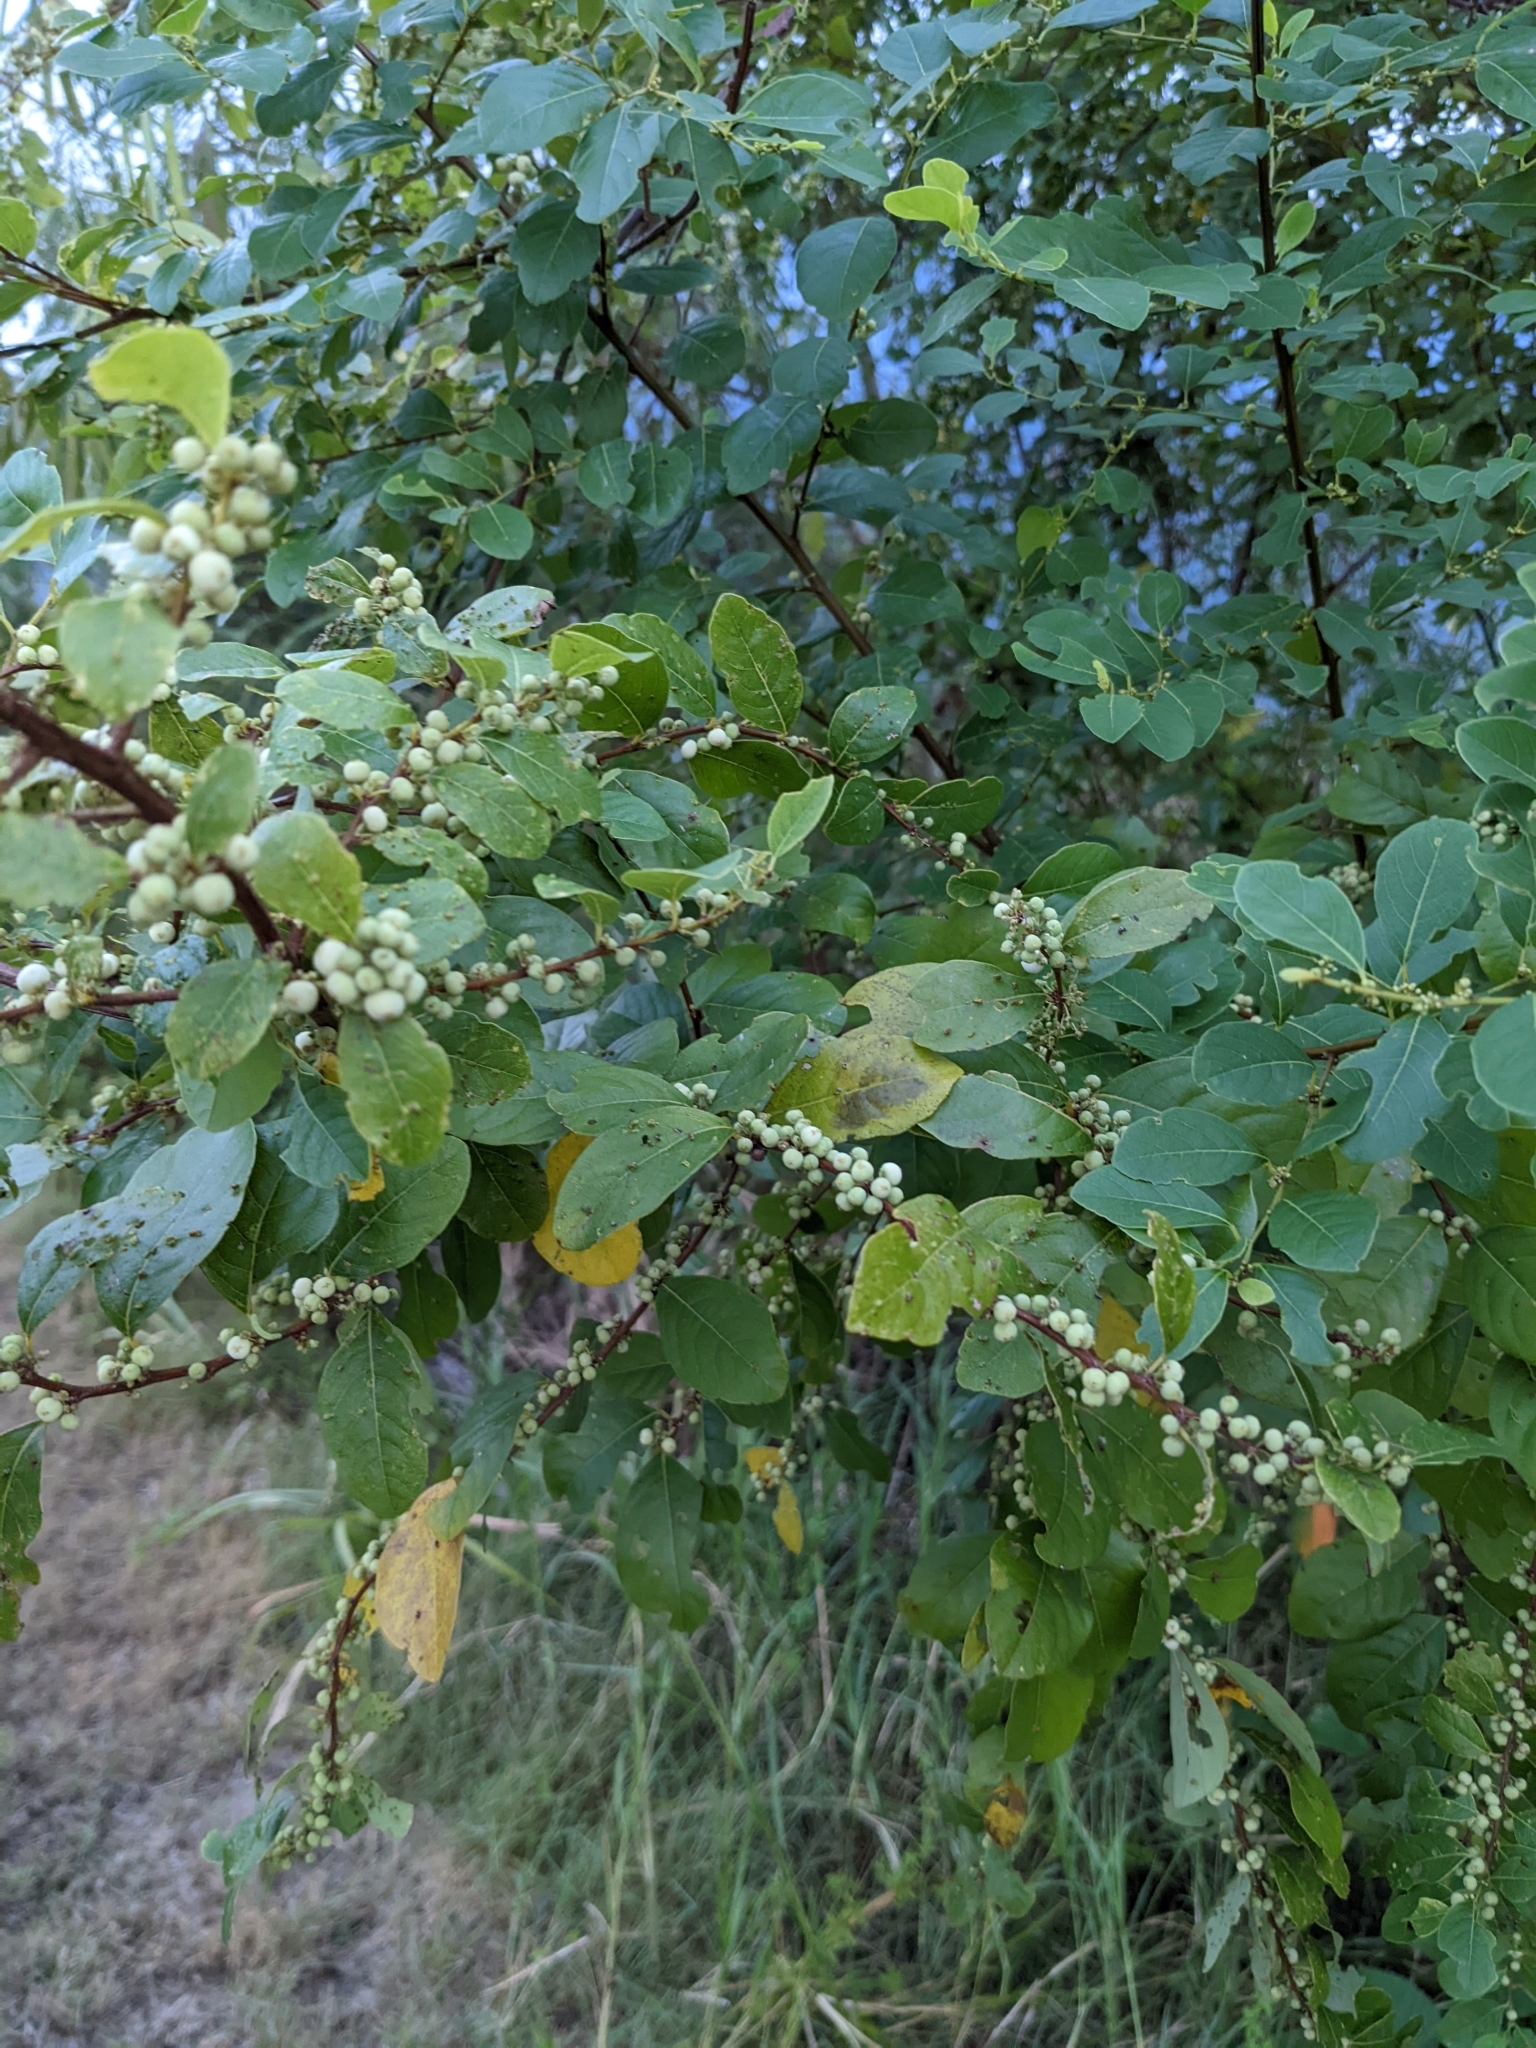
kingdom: Plantae
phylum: Tracheophyta
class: Magnoliopsida
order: Malpighiales
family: Phyllanthaceae
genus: Flueggea
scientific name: Flueggea virosa
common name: Common bushweed
